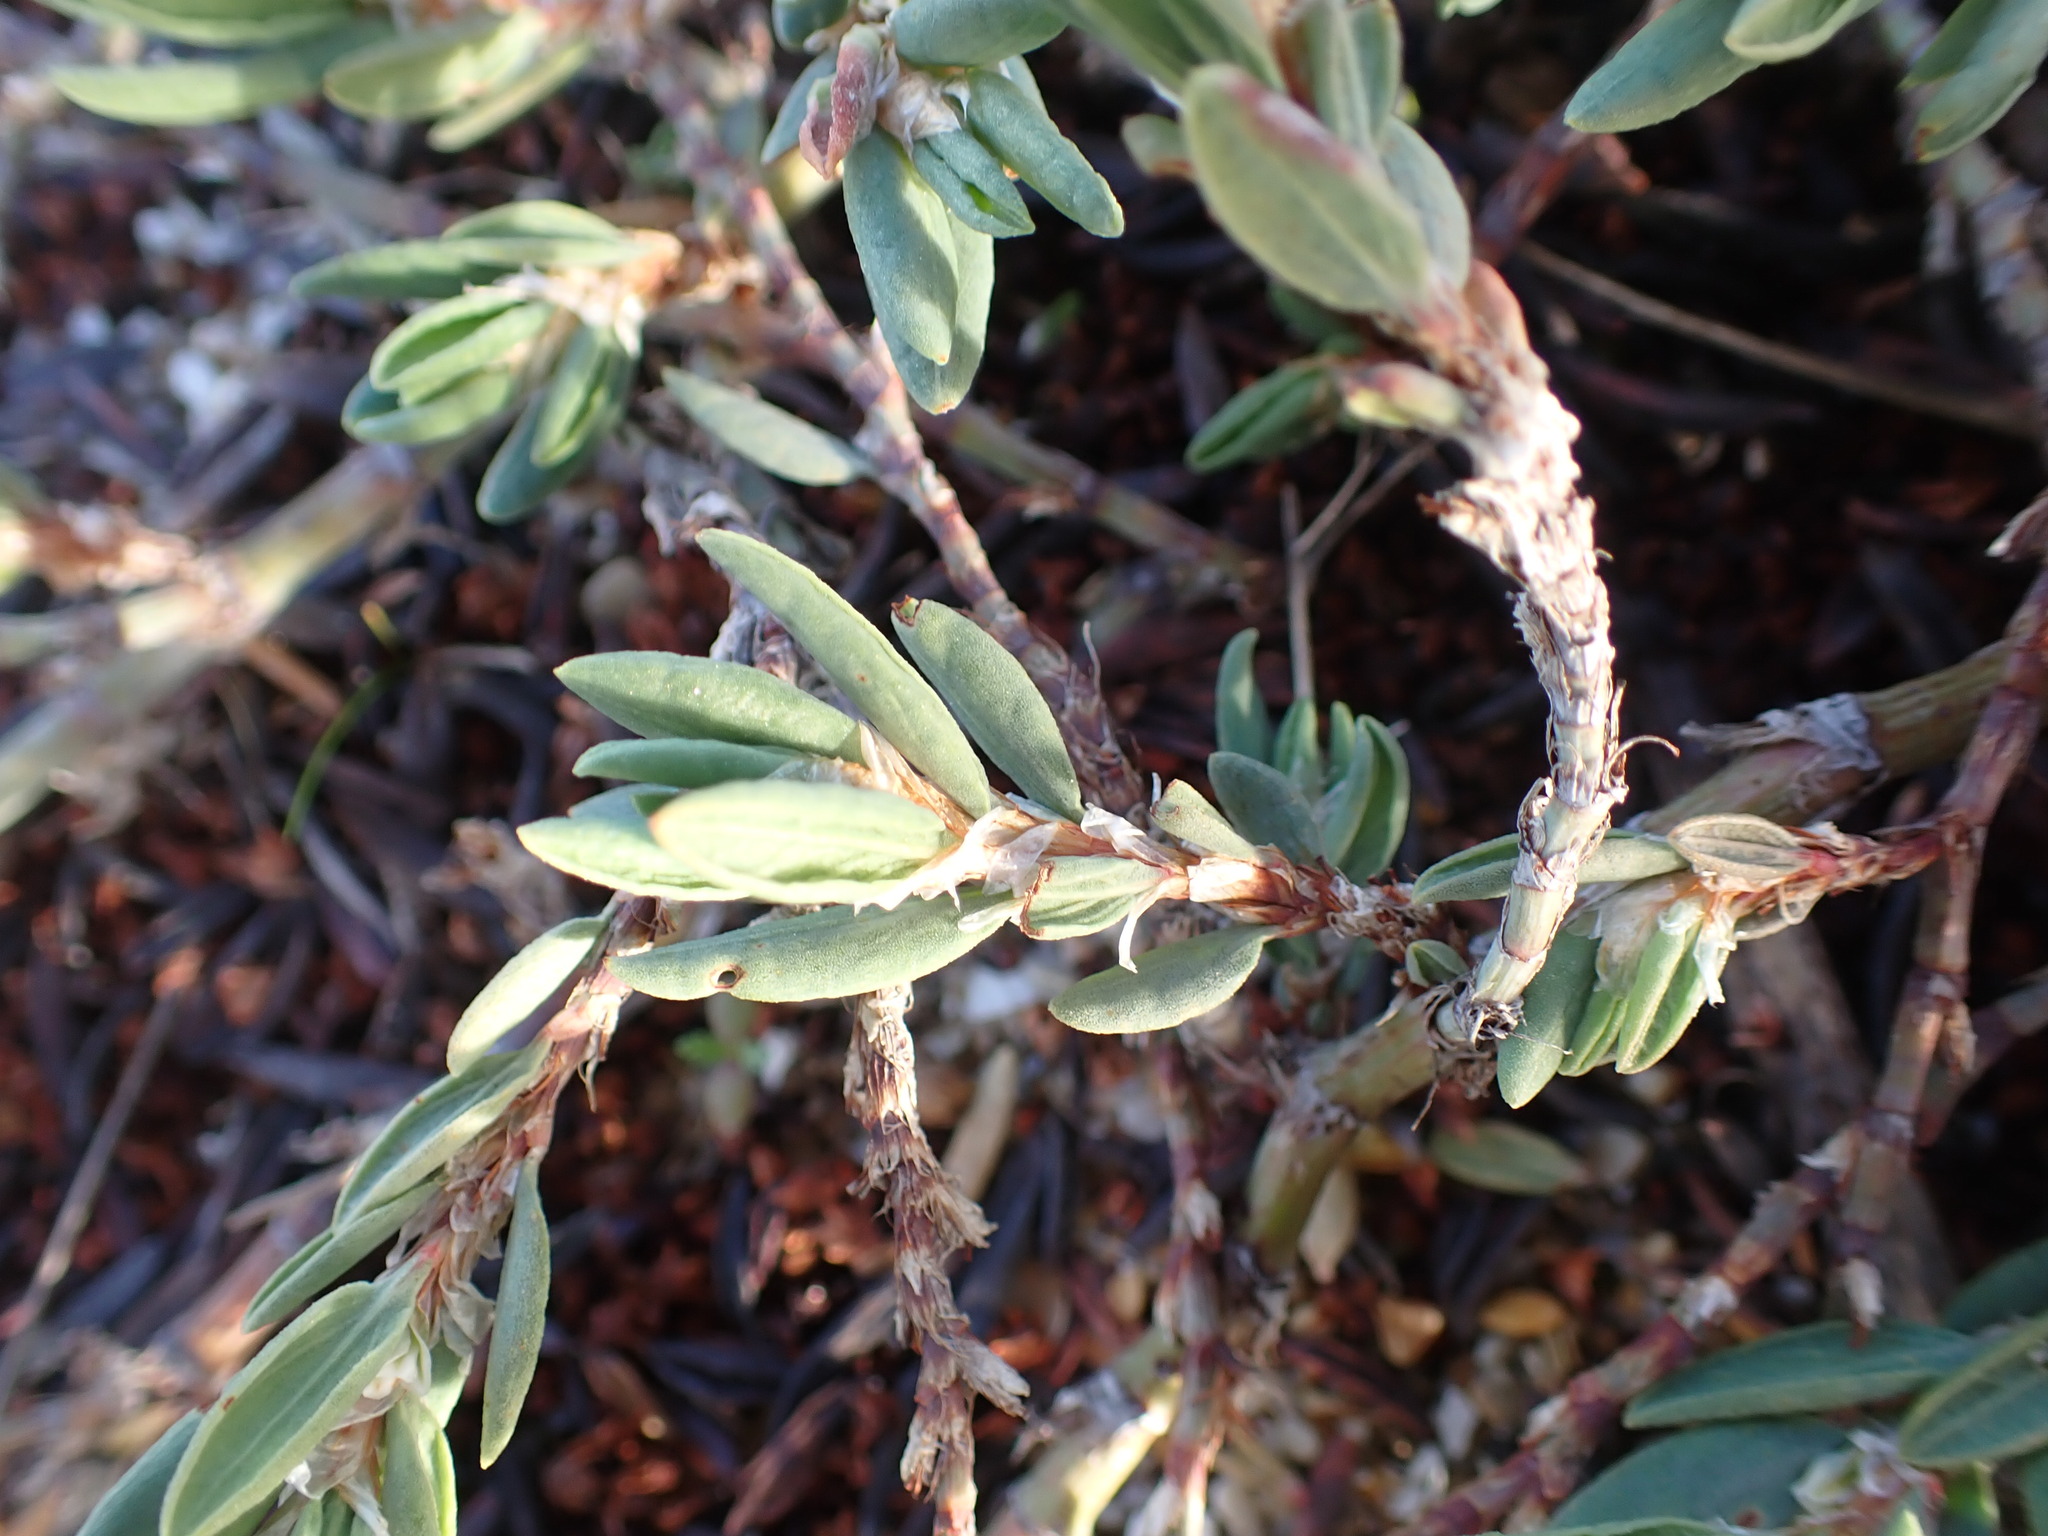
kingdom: Plantae
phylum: Tracheophyta
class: Magnoliopsida
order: Caryophyllales
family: Polygonaceae
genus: Polygonum
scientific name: Polygonum maritimum
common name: Sea knotgrass
